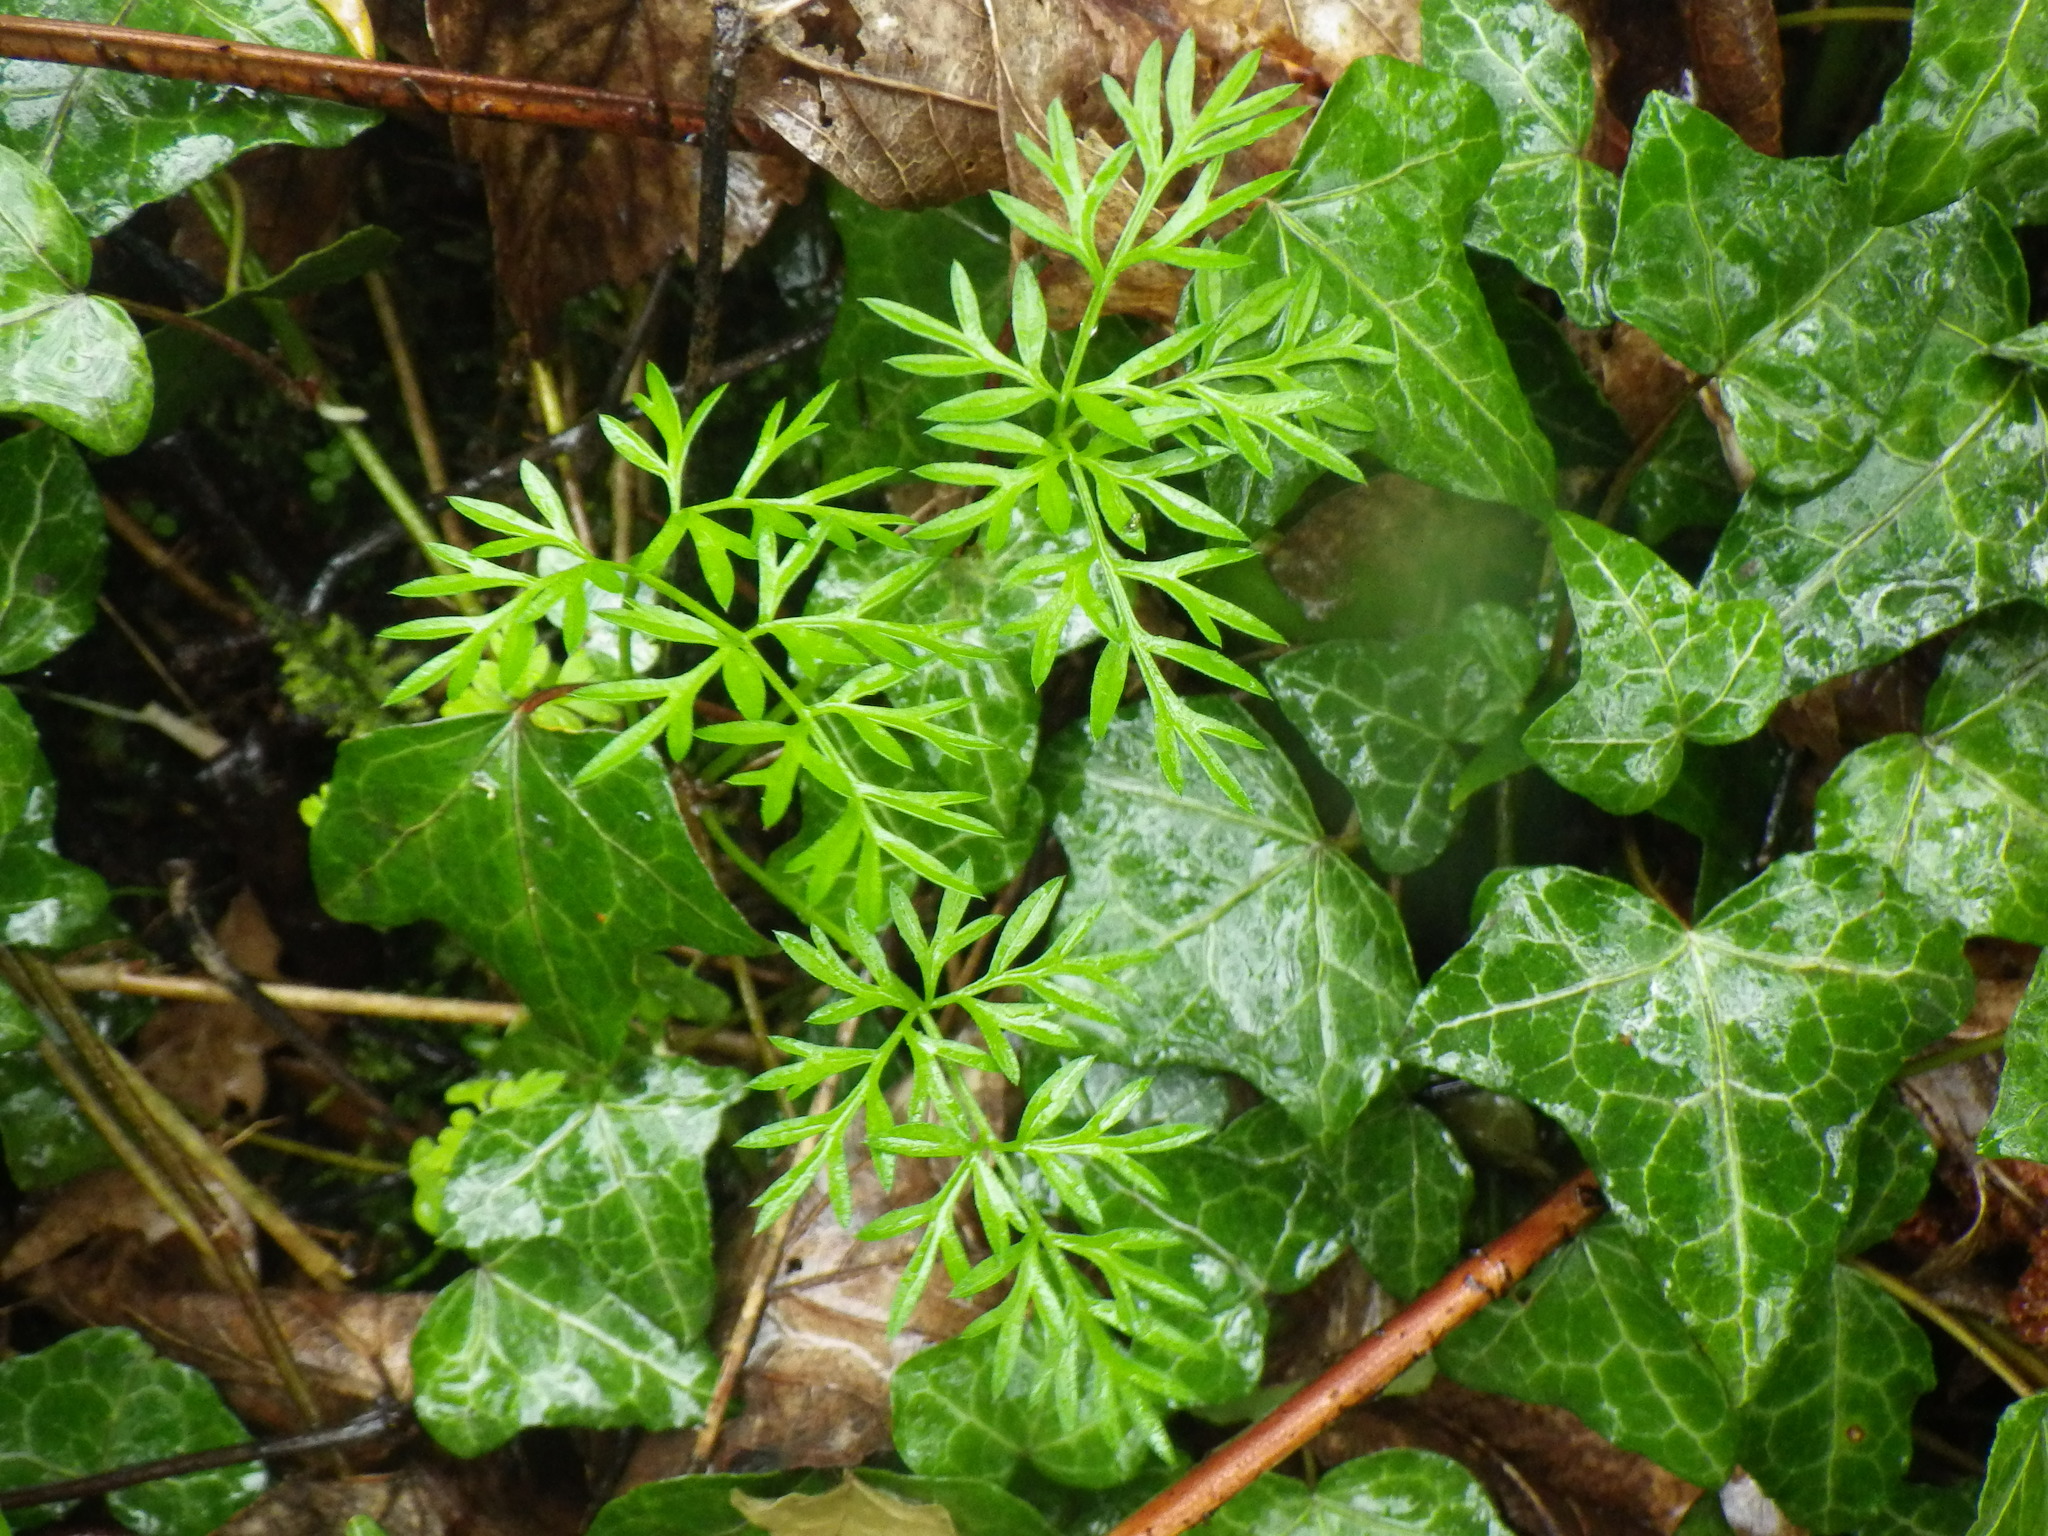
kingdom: Plantae
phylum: Tracheophyta
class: Magnoliopsida
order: Apiales
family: Apiaceae
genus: Conopodium
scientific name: Conopodium majus
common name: Pignut
